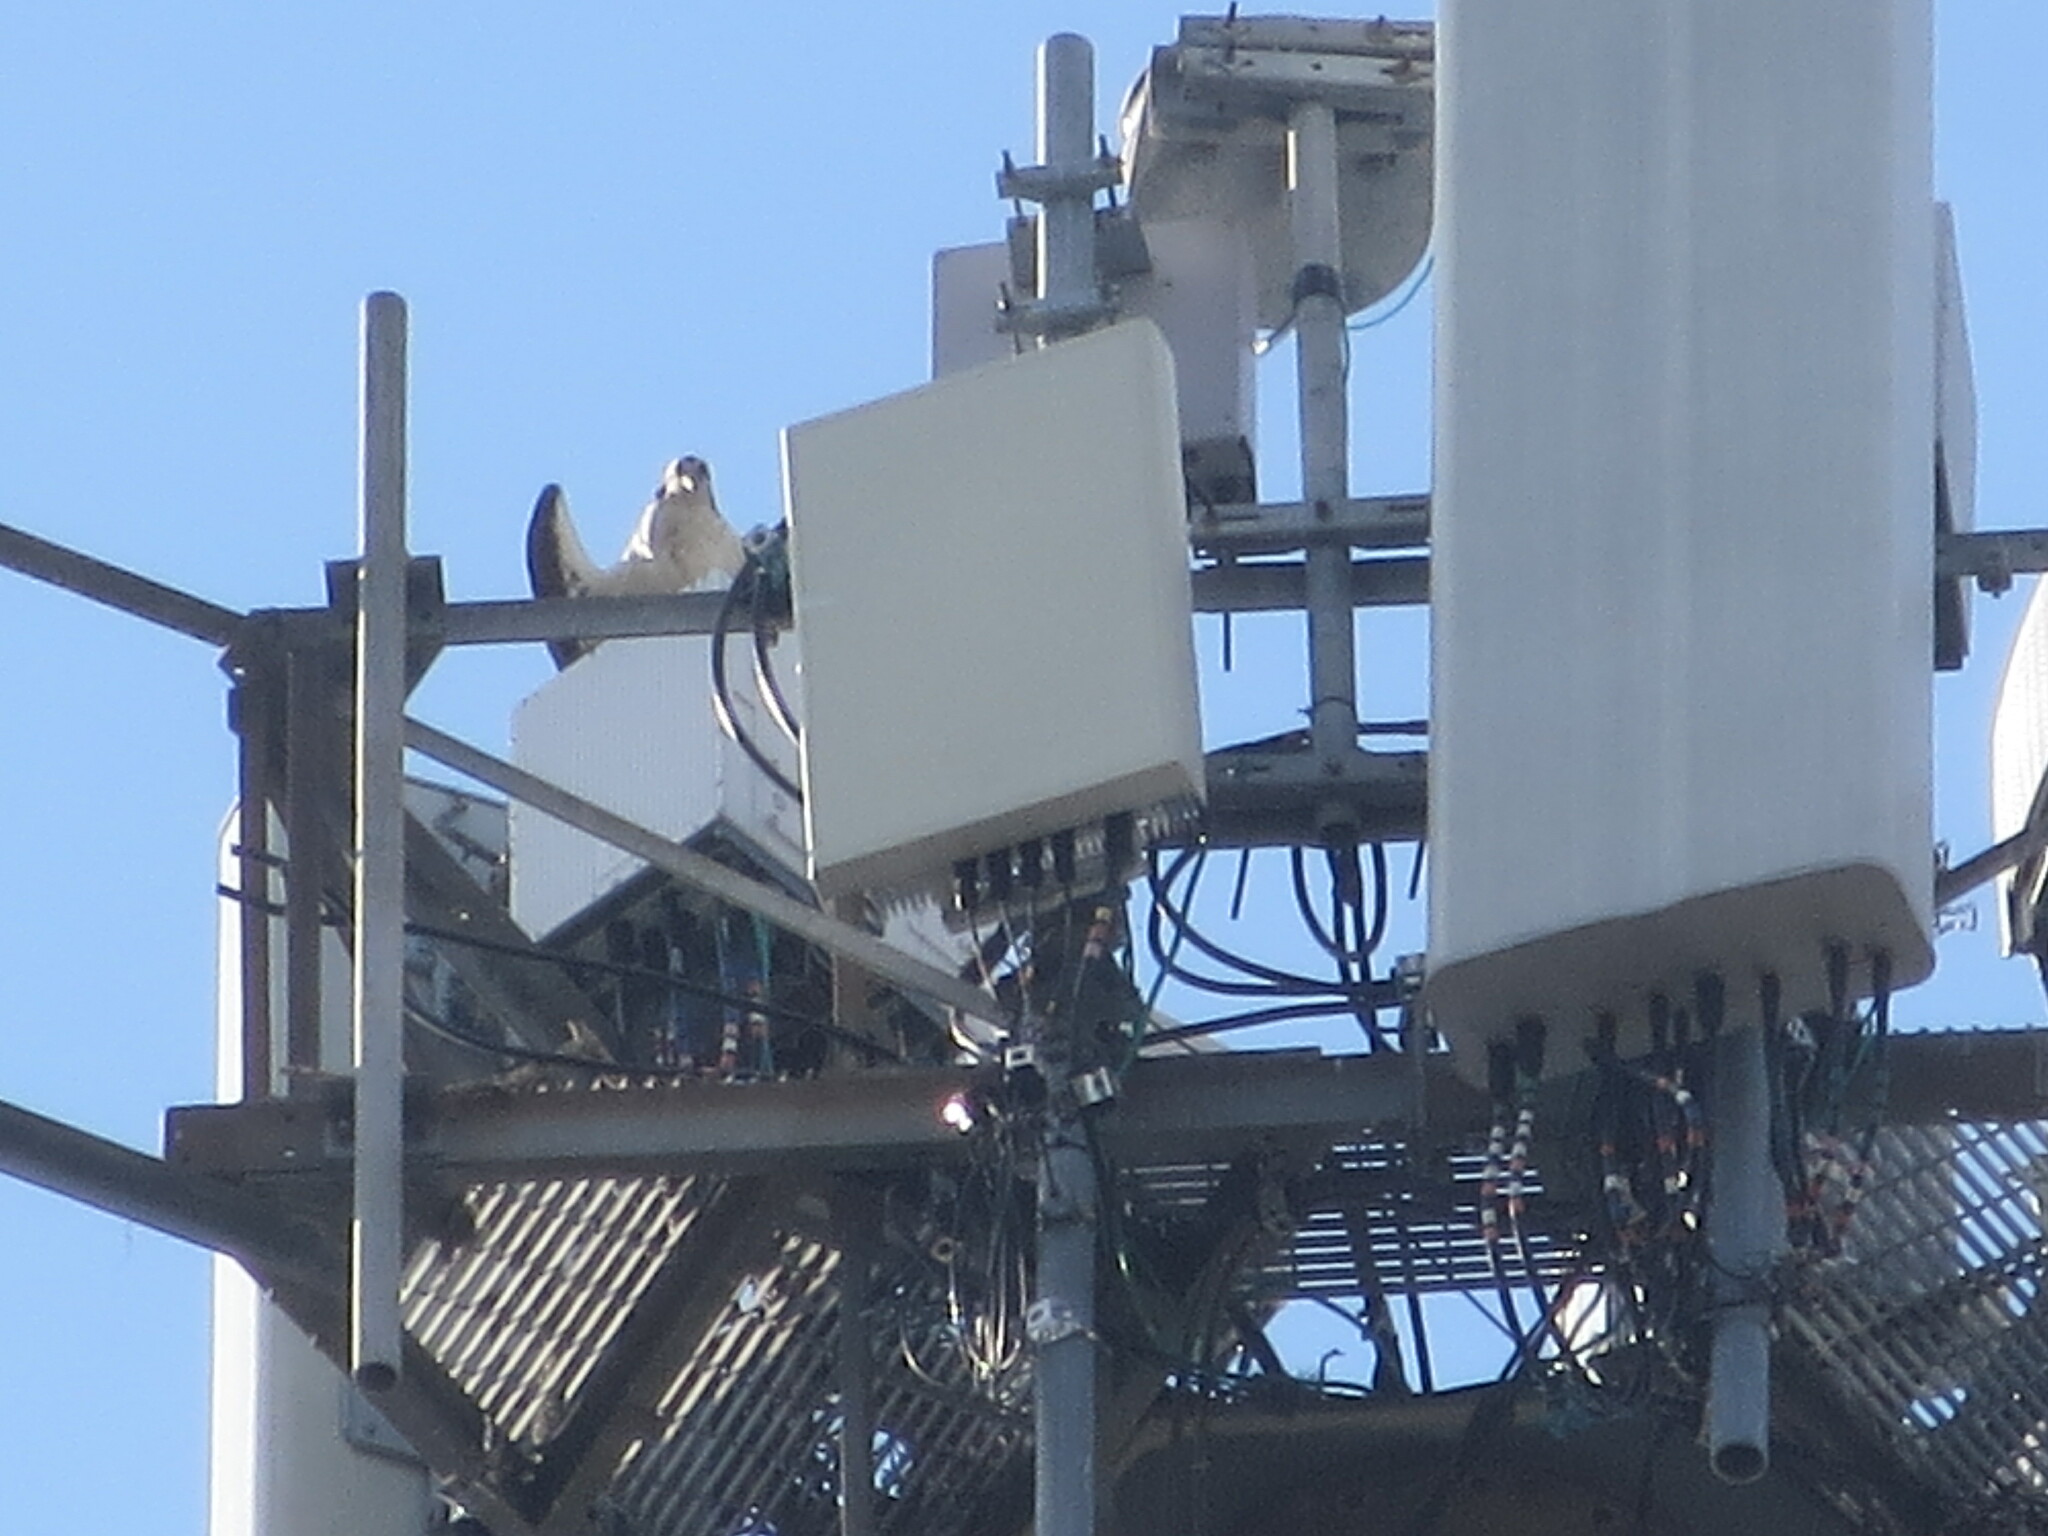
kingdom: Animalia
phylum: Chordata
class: Aves
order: Accipitriformes
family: Pandionidae
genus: Pandion
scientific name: Pandion haliaetus
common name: Osprey
